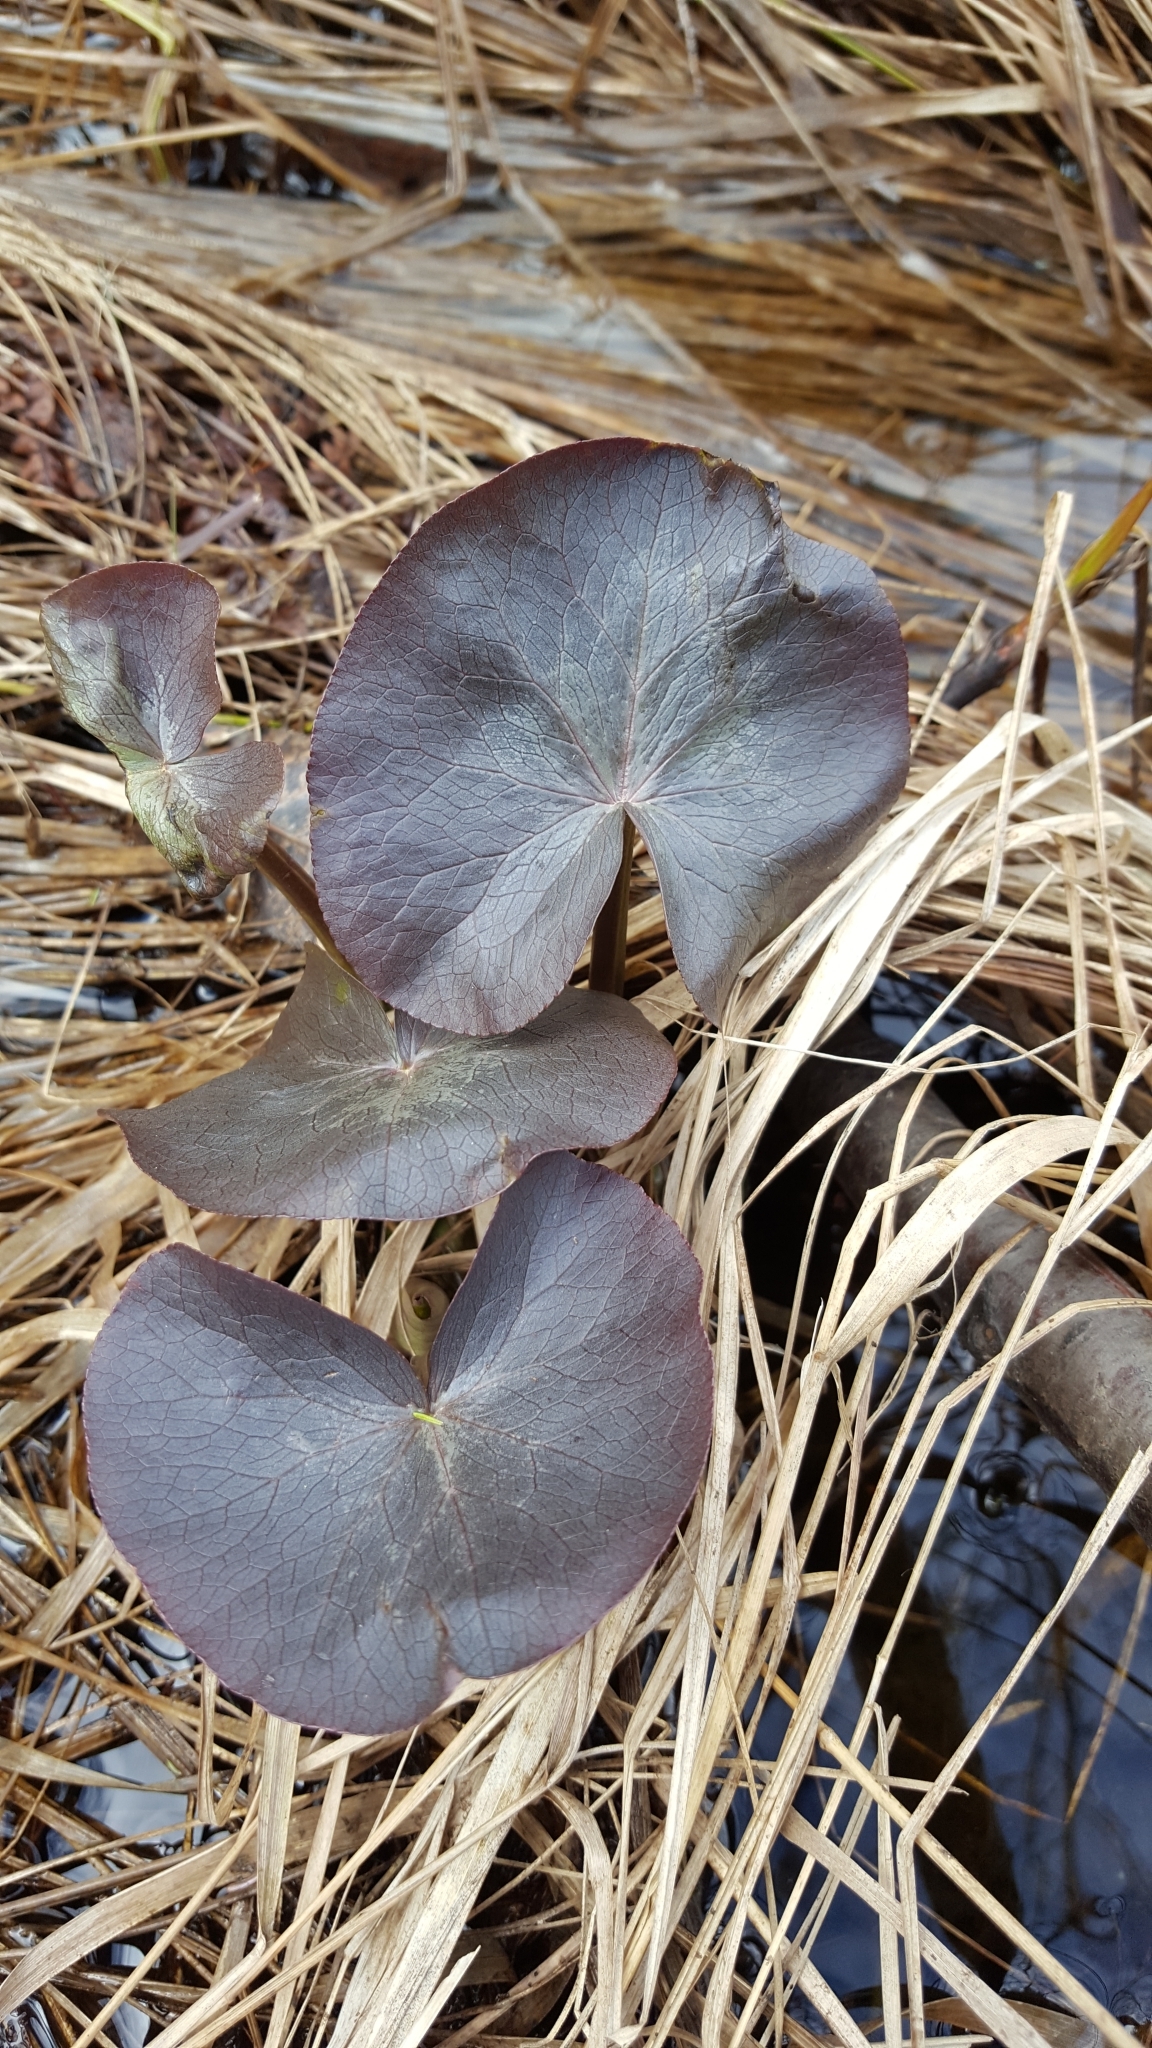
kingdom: Plantae
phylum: Tracheophyta
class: Magnoliopsida
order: Ranunculales
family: Ranunculaceae
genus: Caltha
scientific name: Caltha palustris
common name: Marsh marigold
